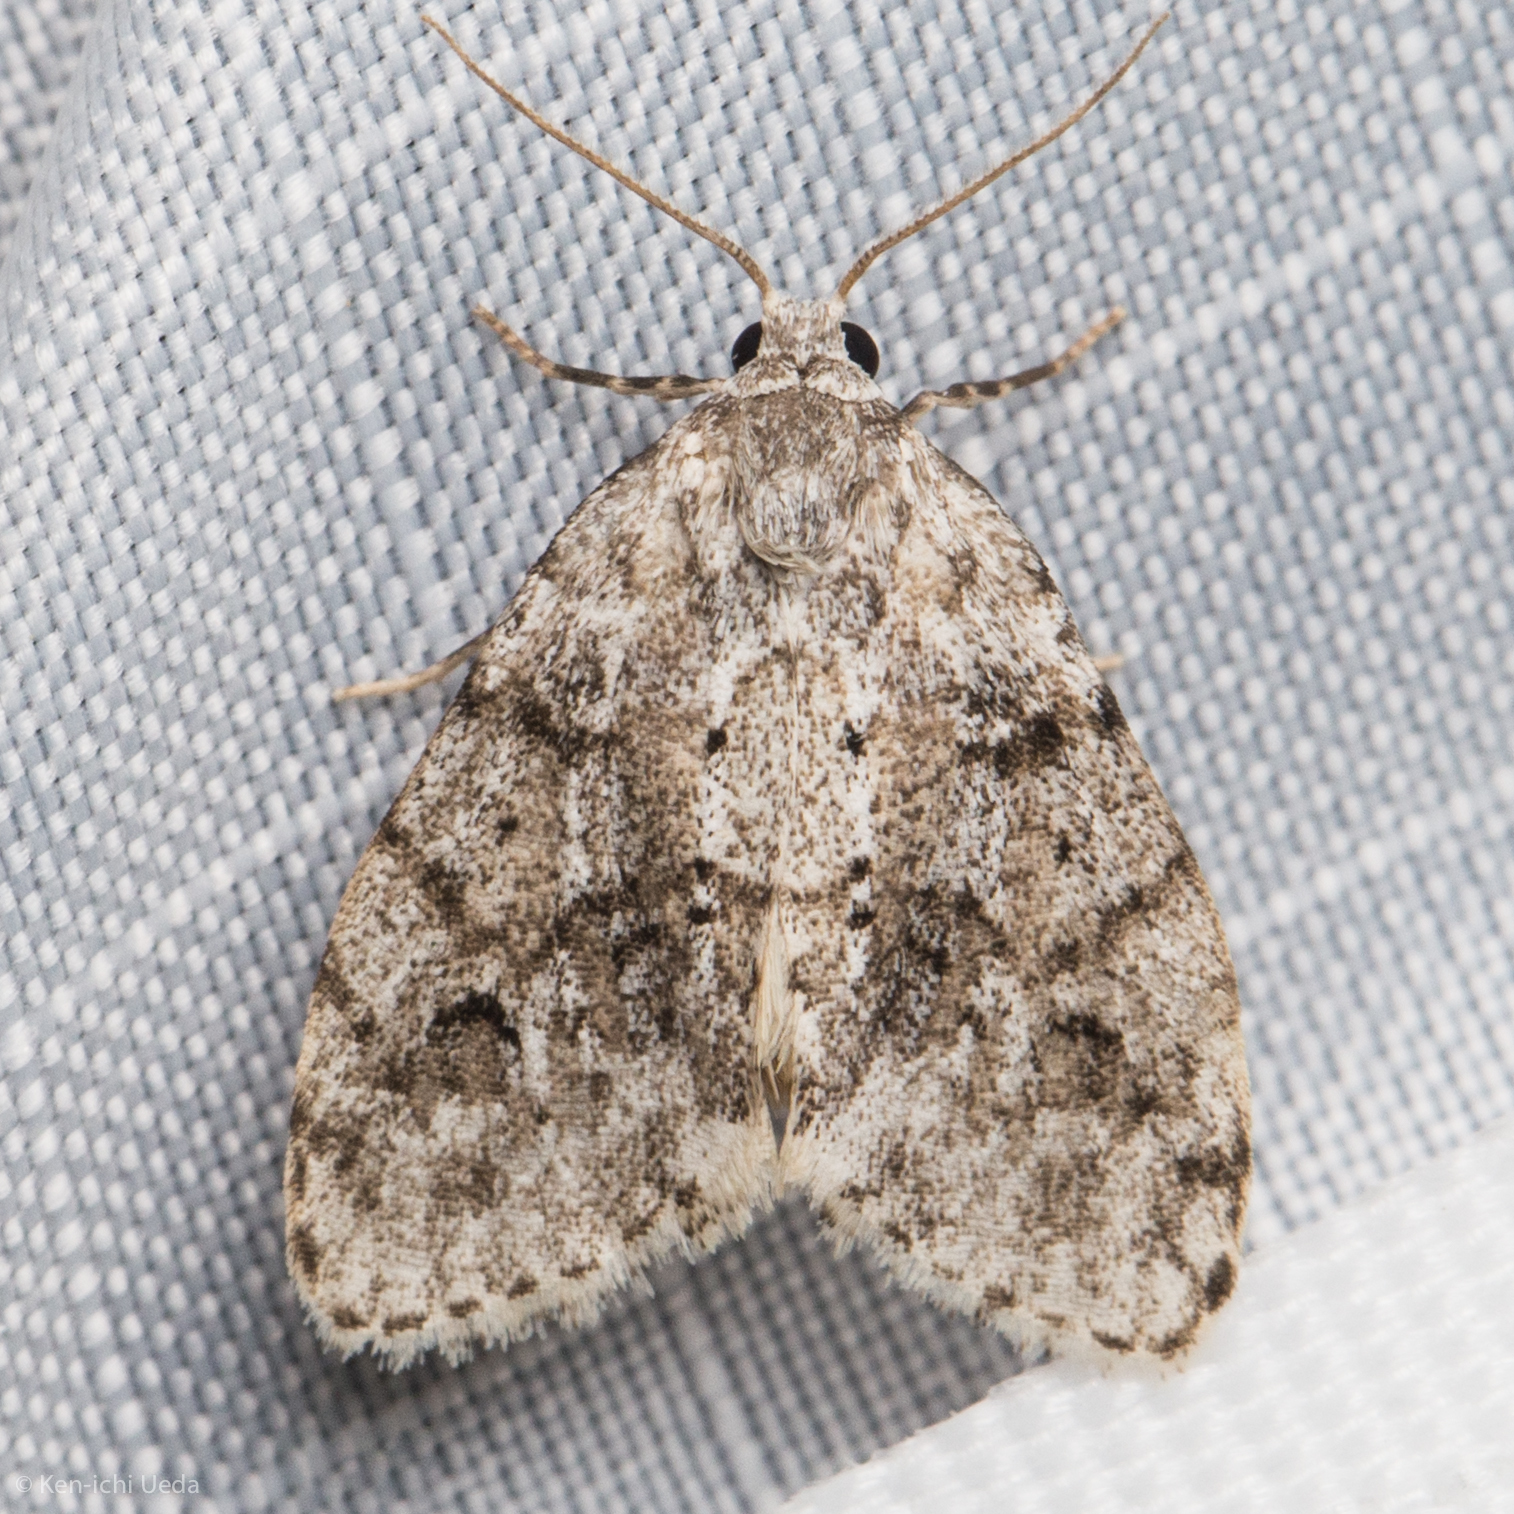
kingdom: Animalia
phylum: Arthropoda
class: Insecta
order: Lepidoptera
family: Erebidae
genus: Clemensia
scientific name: Clemensia albata
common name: Little white lichen moth
